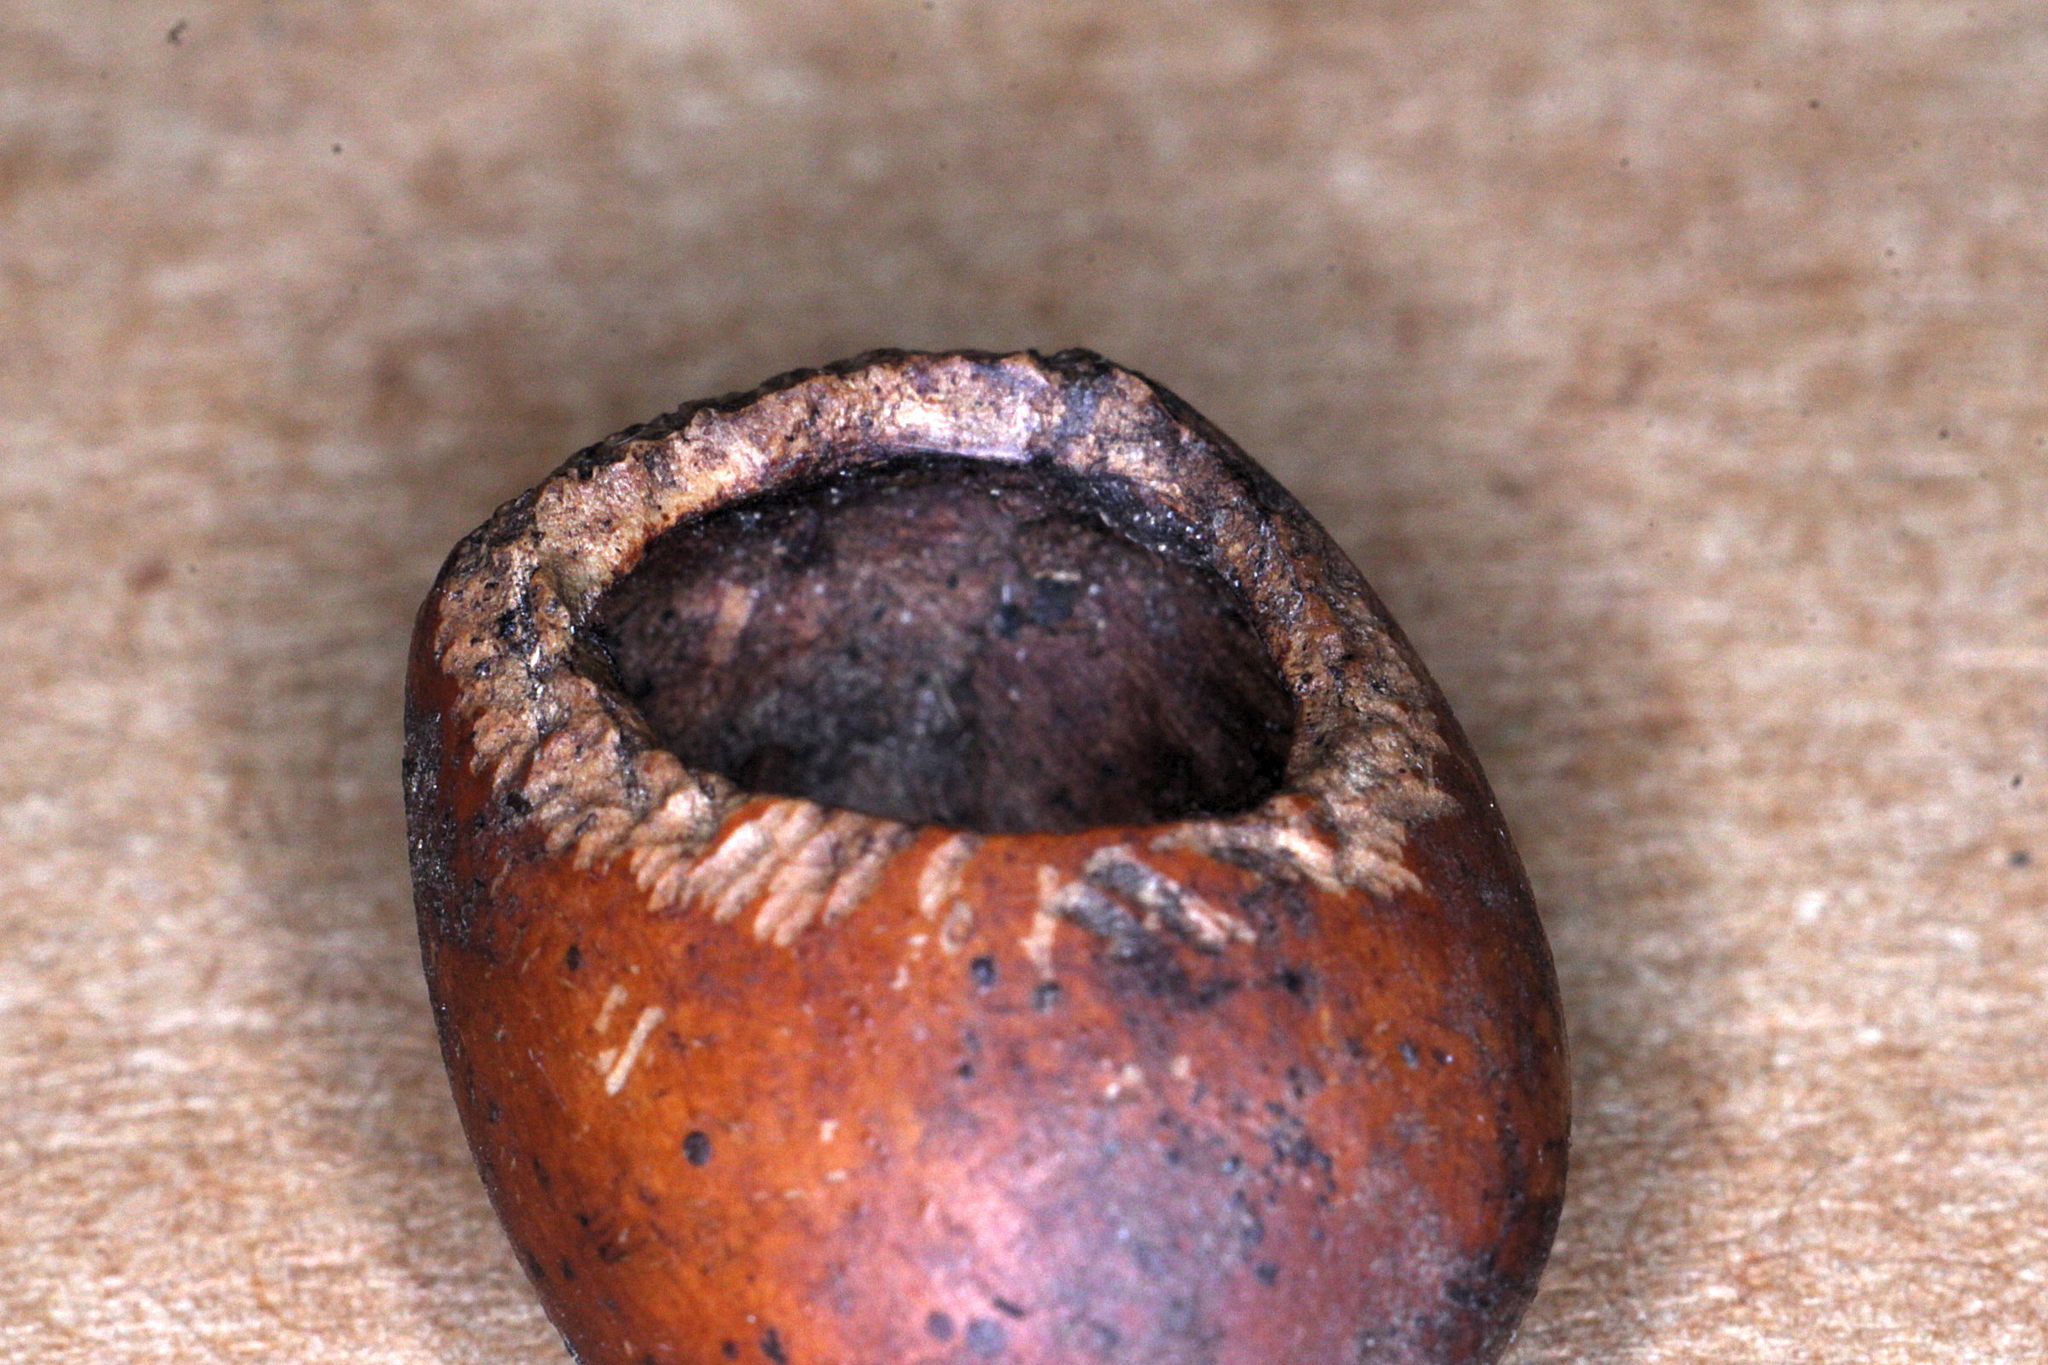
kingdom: Animalia
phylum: Chordata
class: Mammalia
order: Rodentia
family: Gliridae
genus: Muscardinus
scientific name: Muscardinus avellanarius
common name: Hazel dormouse
